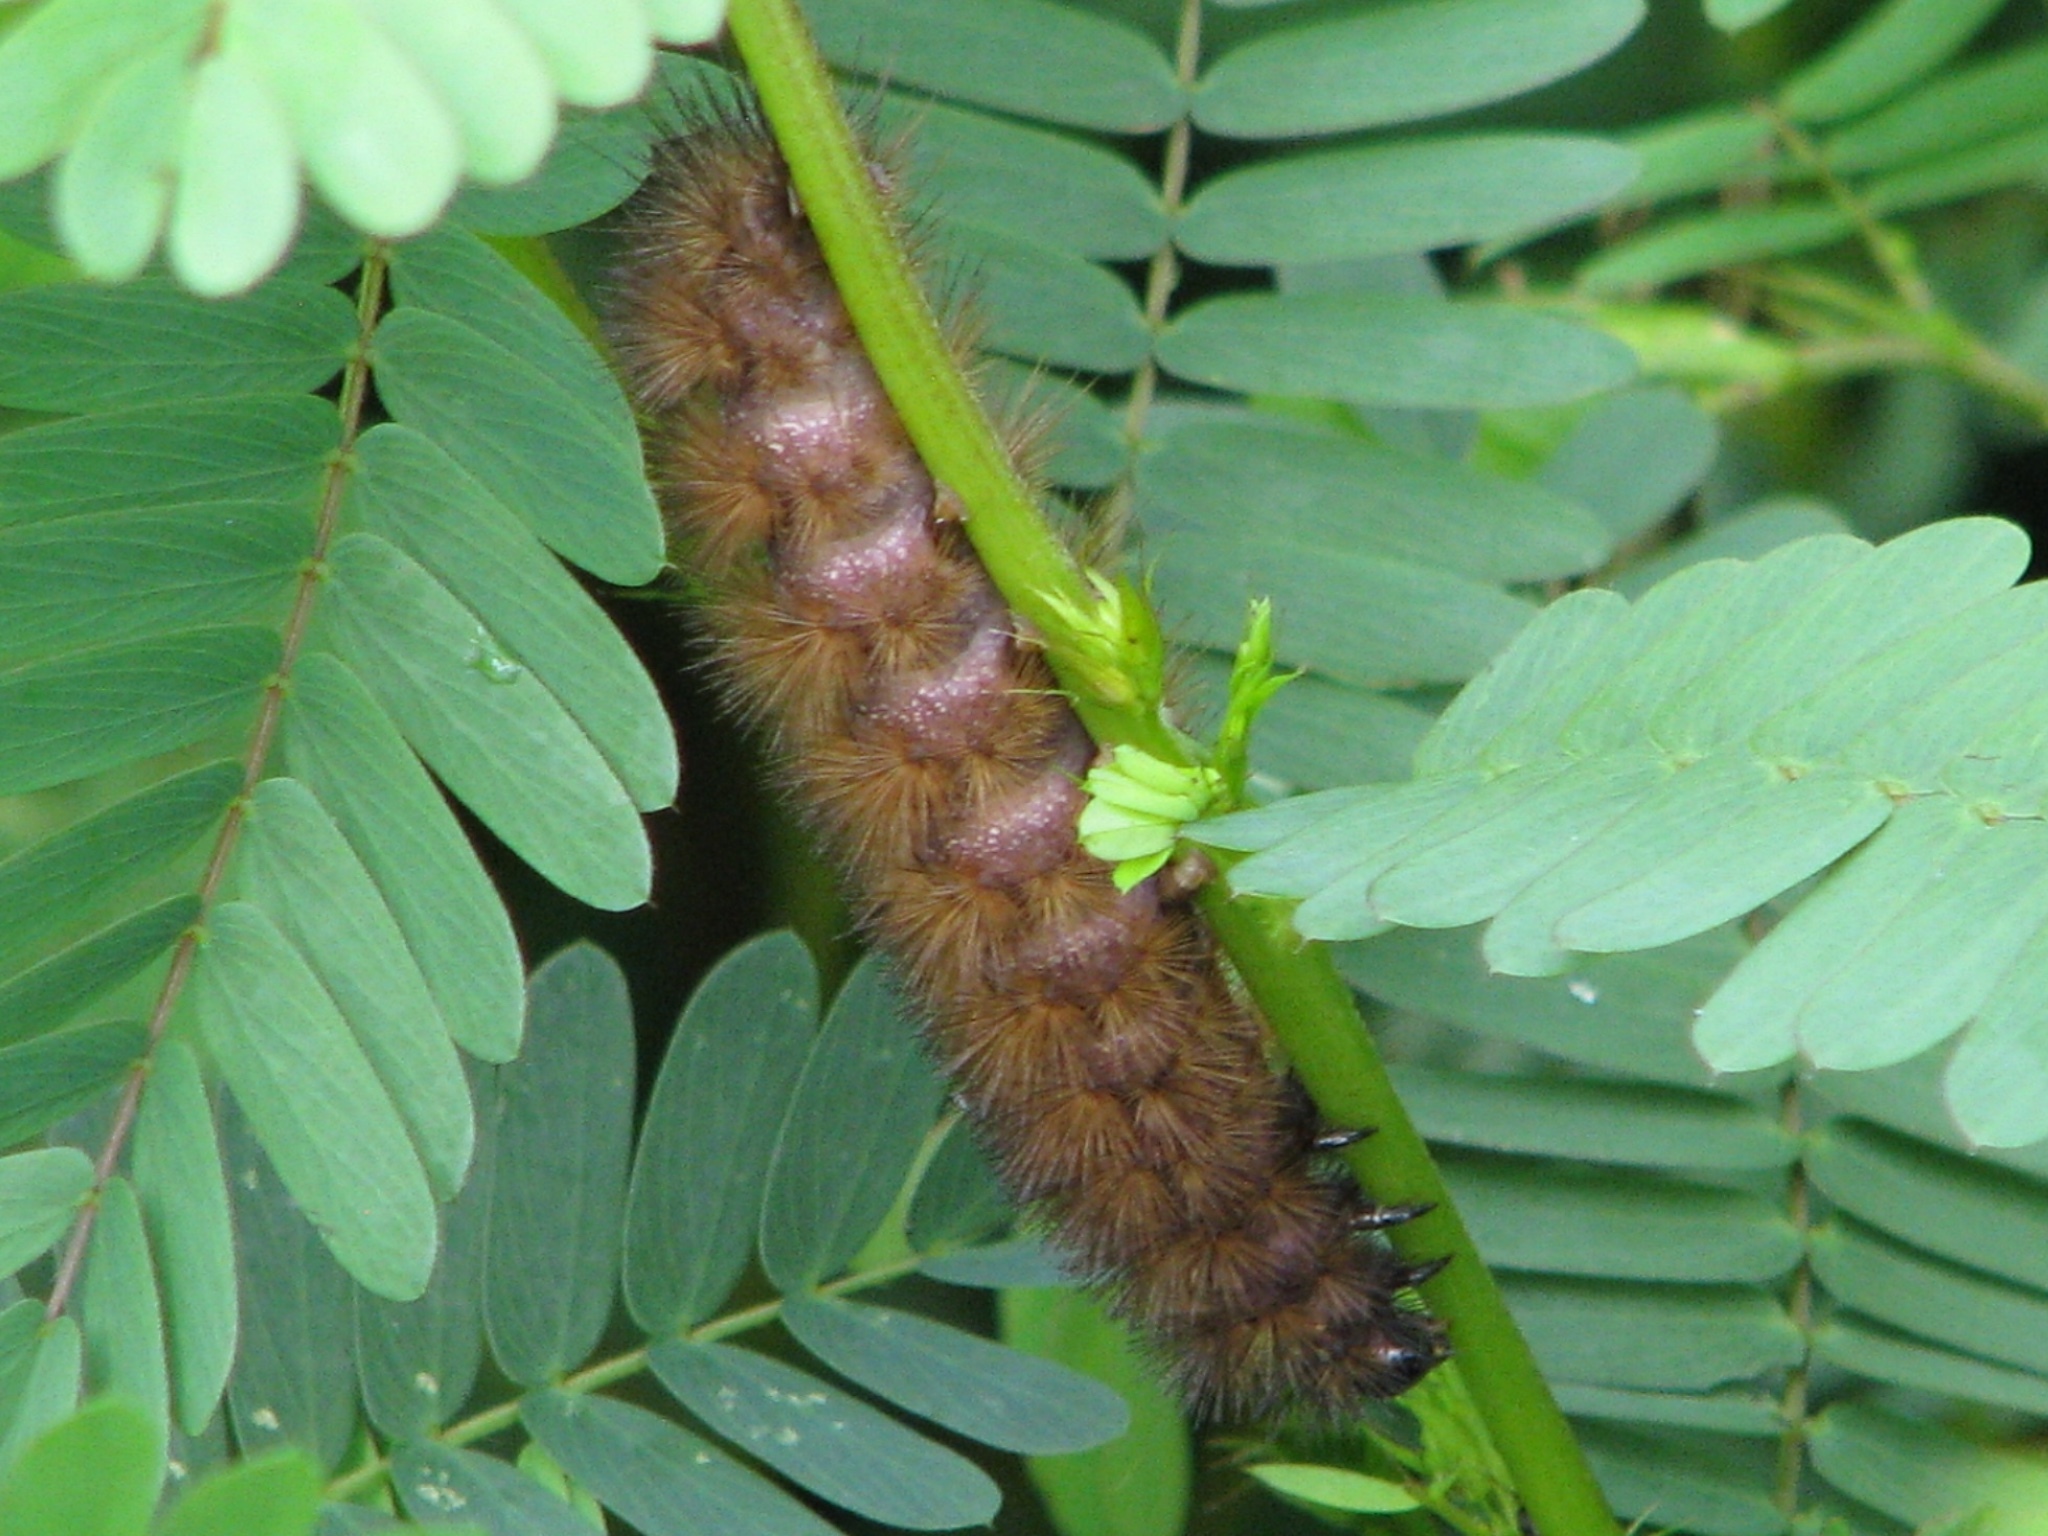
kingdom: Animalia
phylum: Arthropoda
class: Insecta
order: Lepidoptera
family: Erebidae
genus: Pyrrharctia
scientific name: Pyrrharctia isabella
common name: Isabella tiger moth
